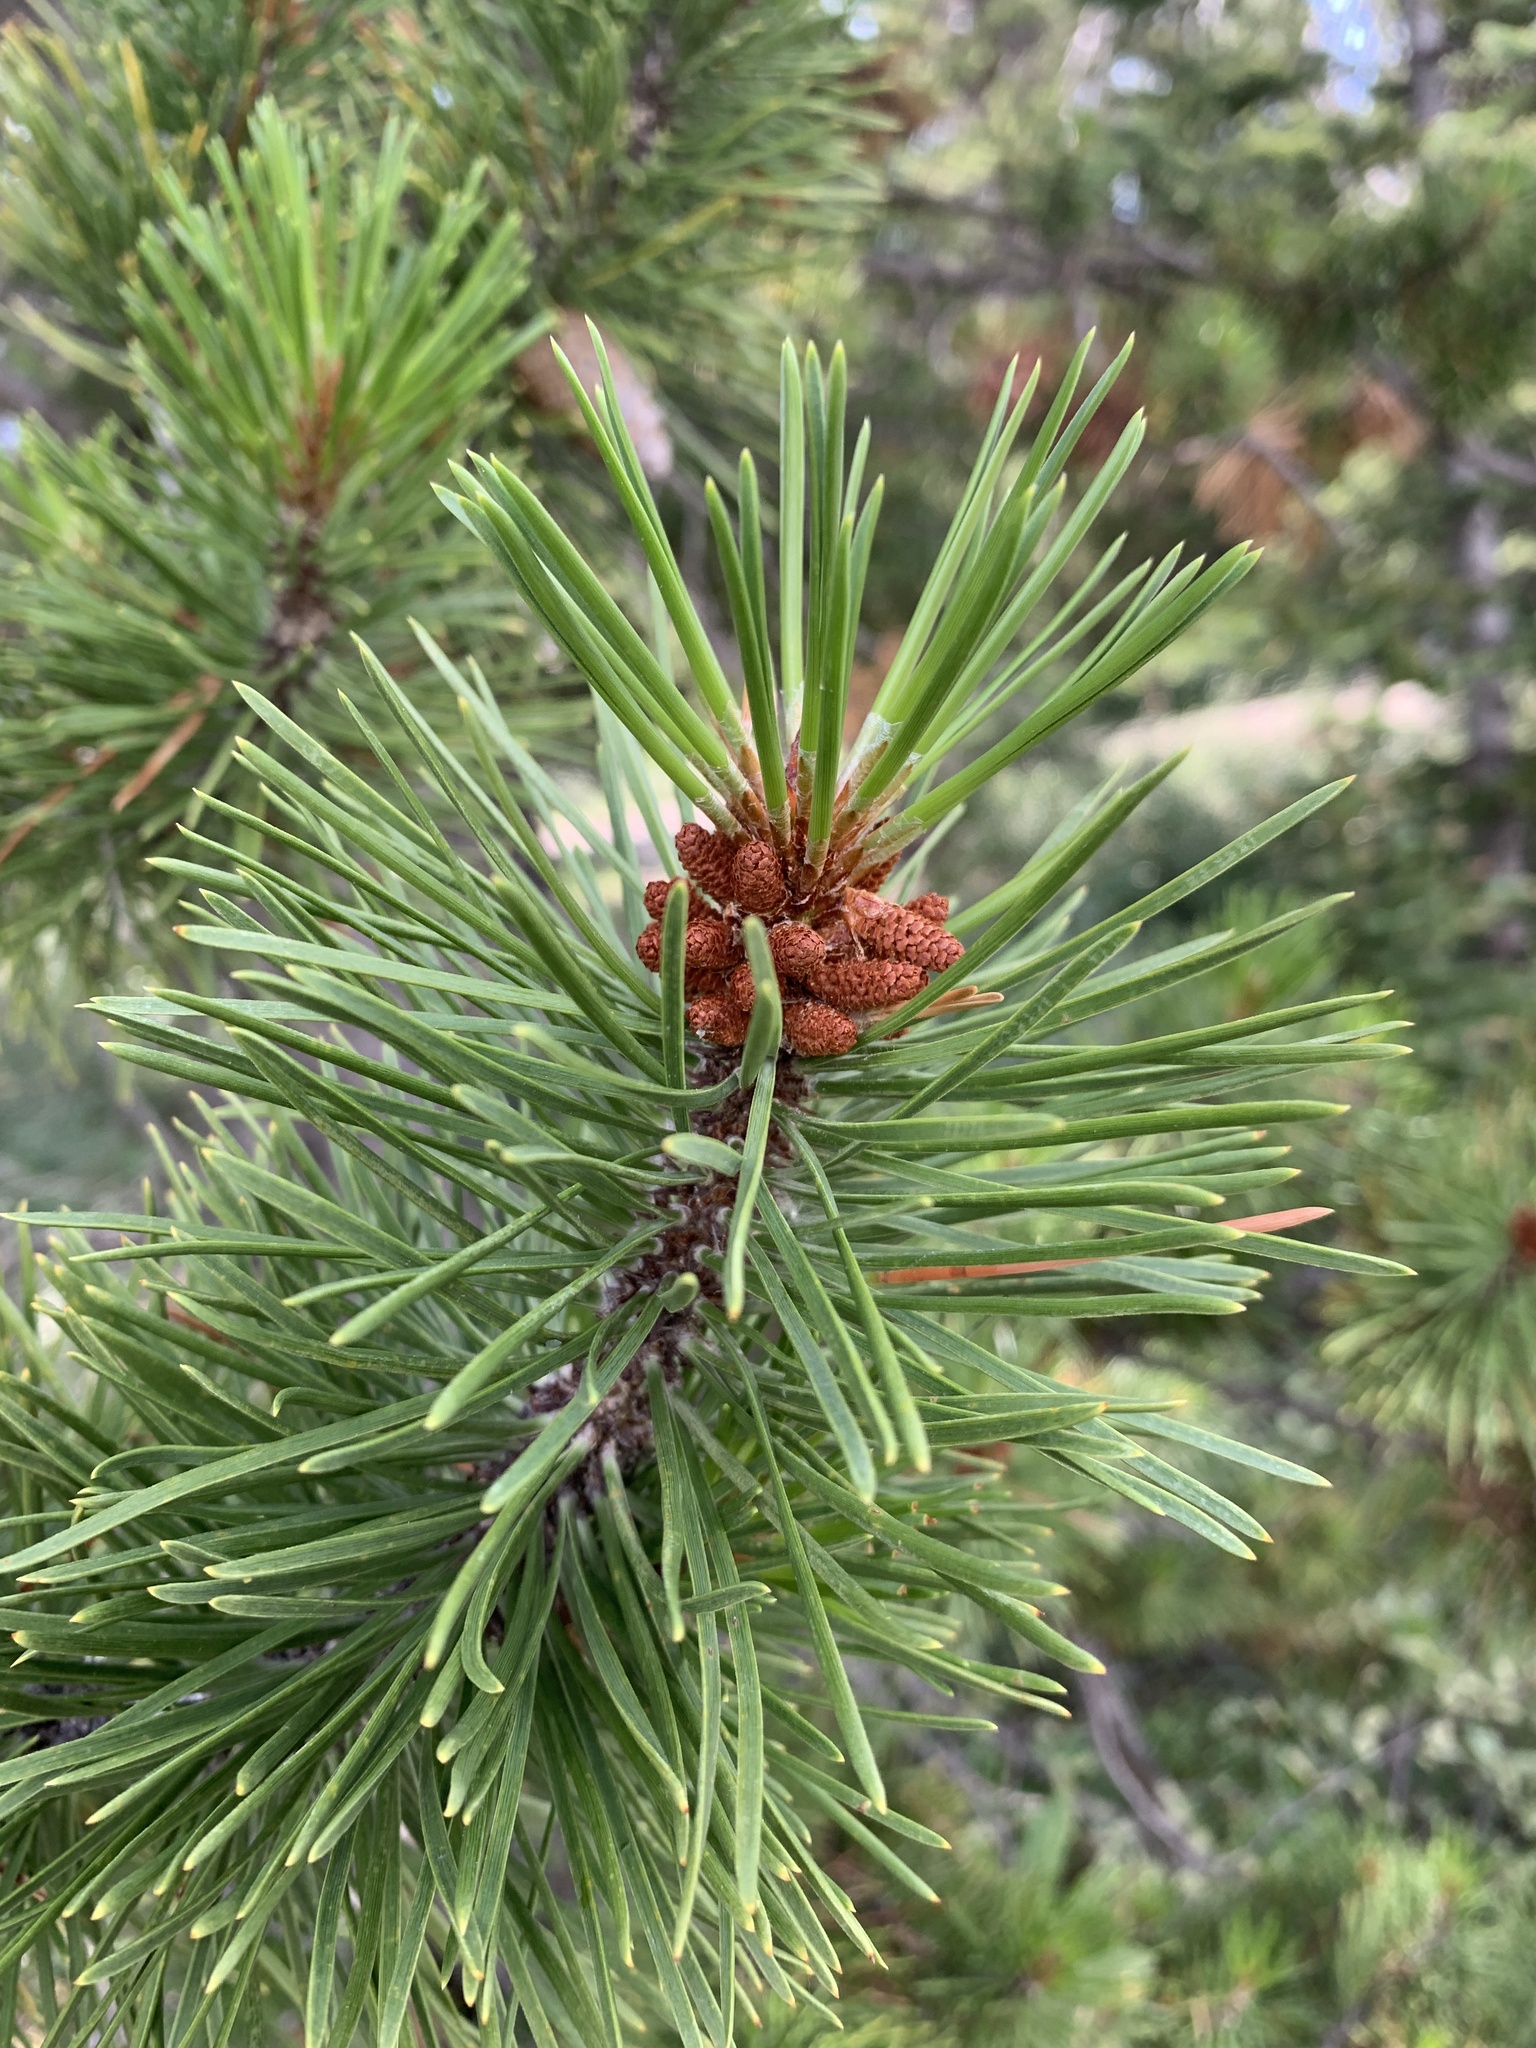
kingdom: Plantae
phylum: Tracheophyta
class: Pinopsida
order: Pinales
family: Pinaceae
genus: Pinus
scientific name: Pinus contorta
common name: Lodgepole pine
